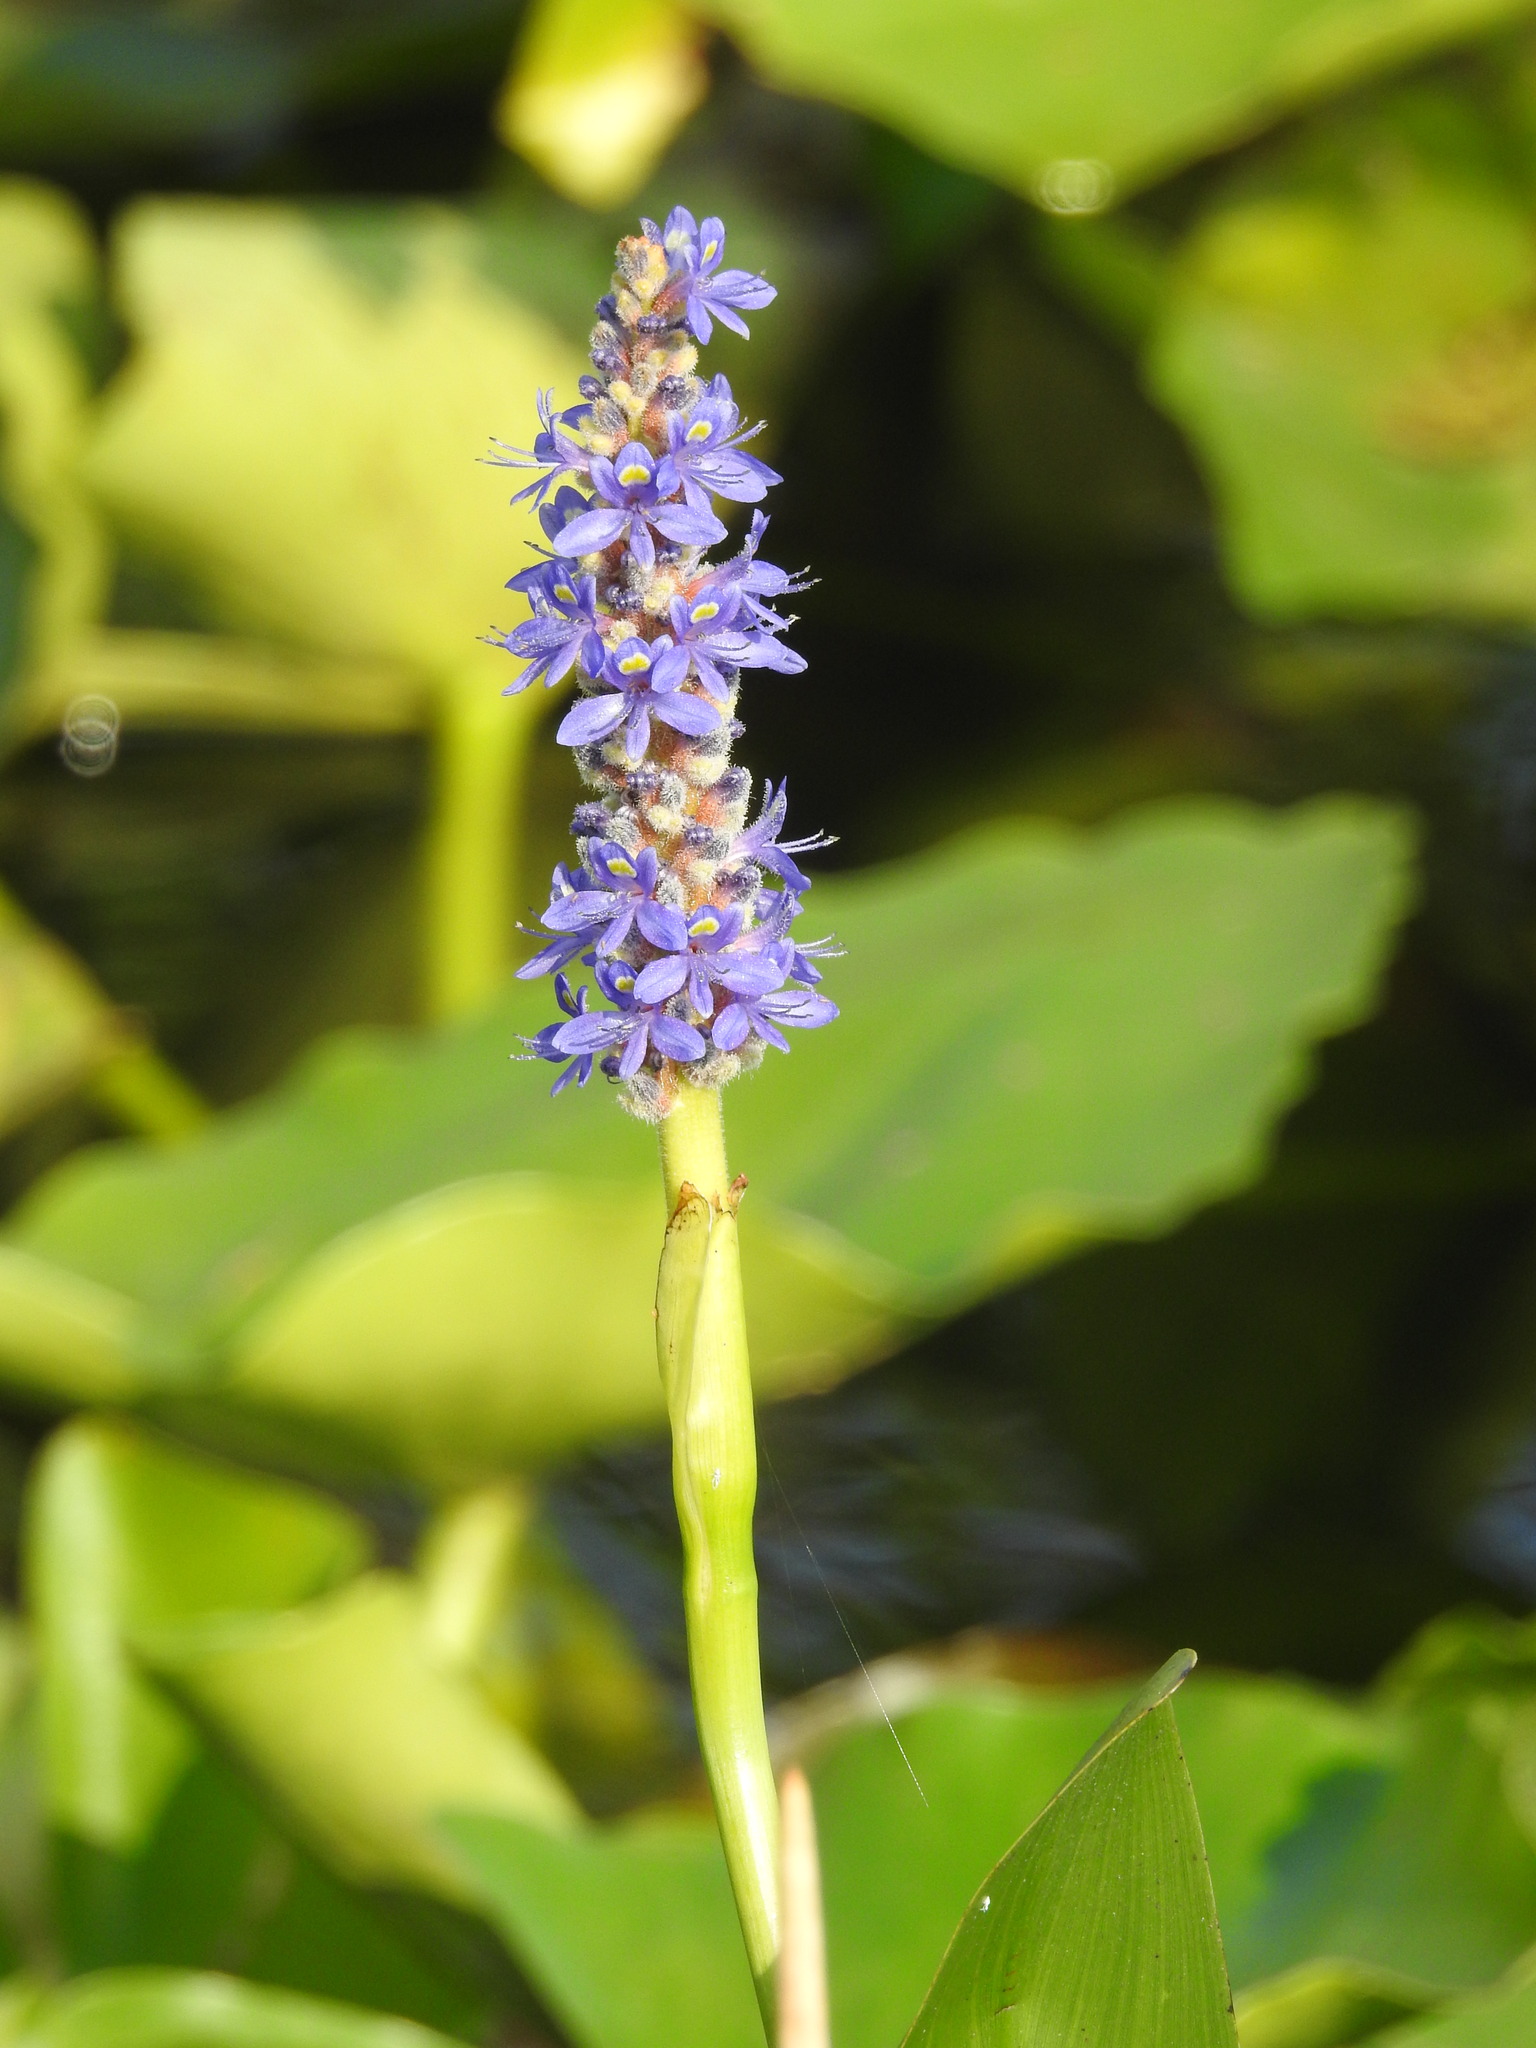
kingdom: Plantae
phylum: Tracheophyta
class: Liliopsida
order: Commelinales
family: Pontederiaceae
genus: Pontederia
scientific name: Pontederia cordata
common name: Pickerelweed
